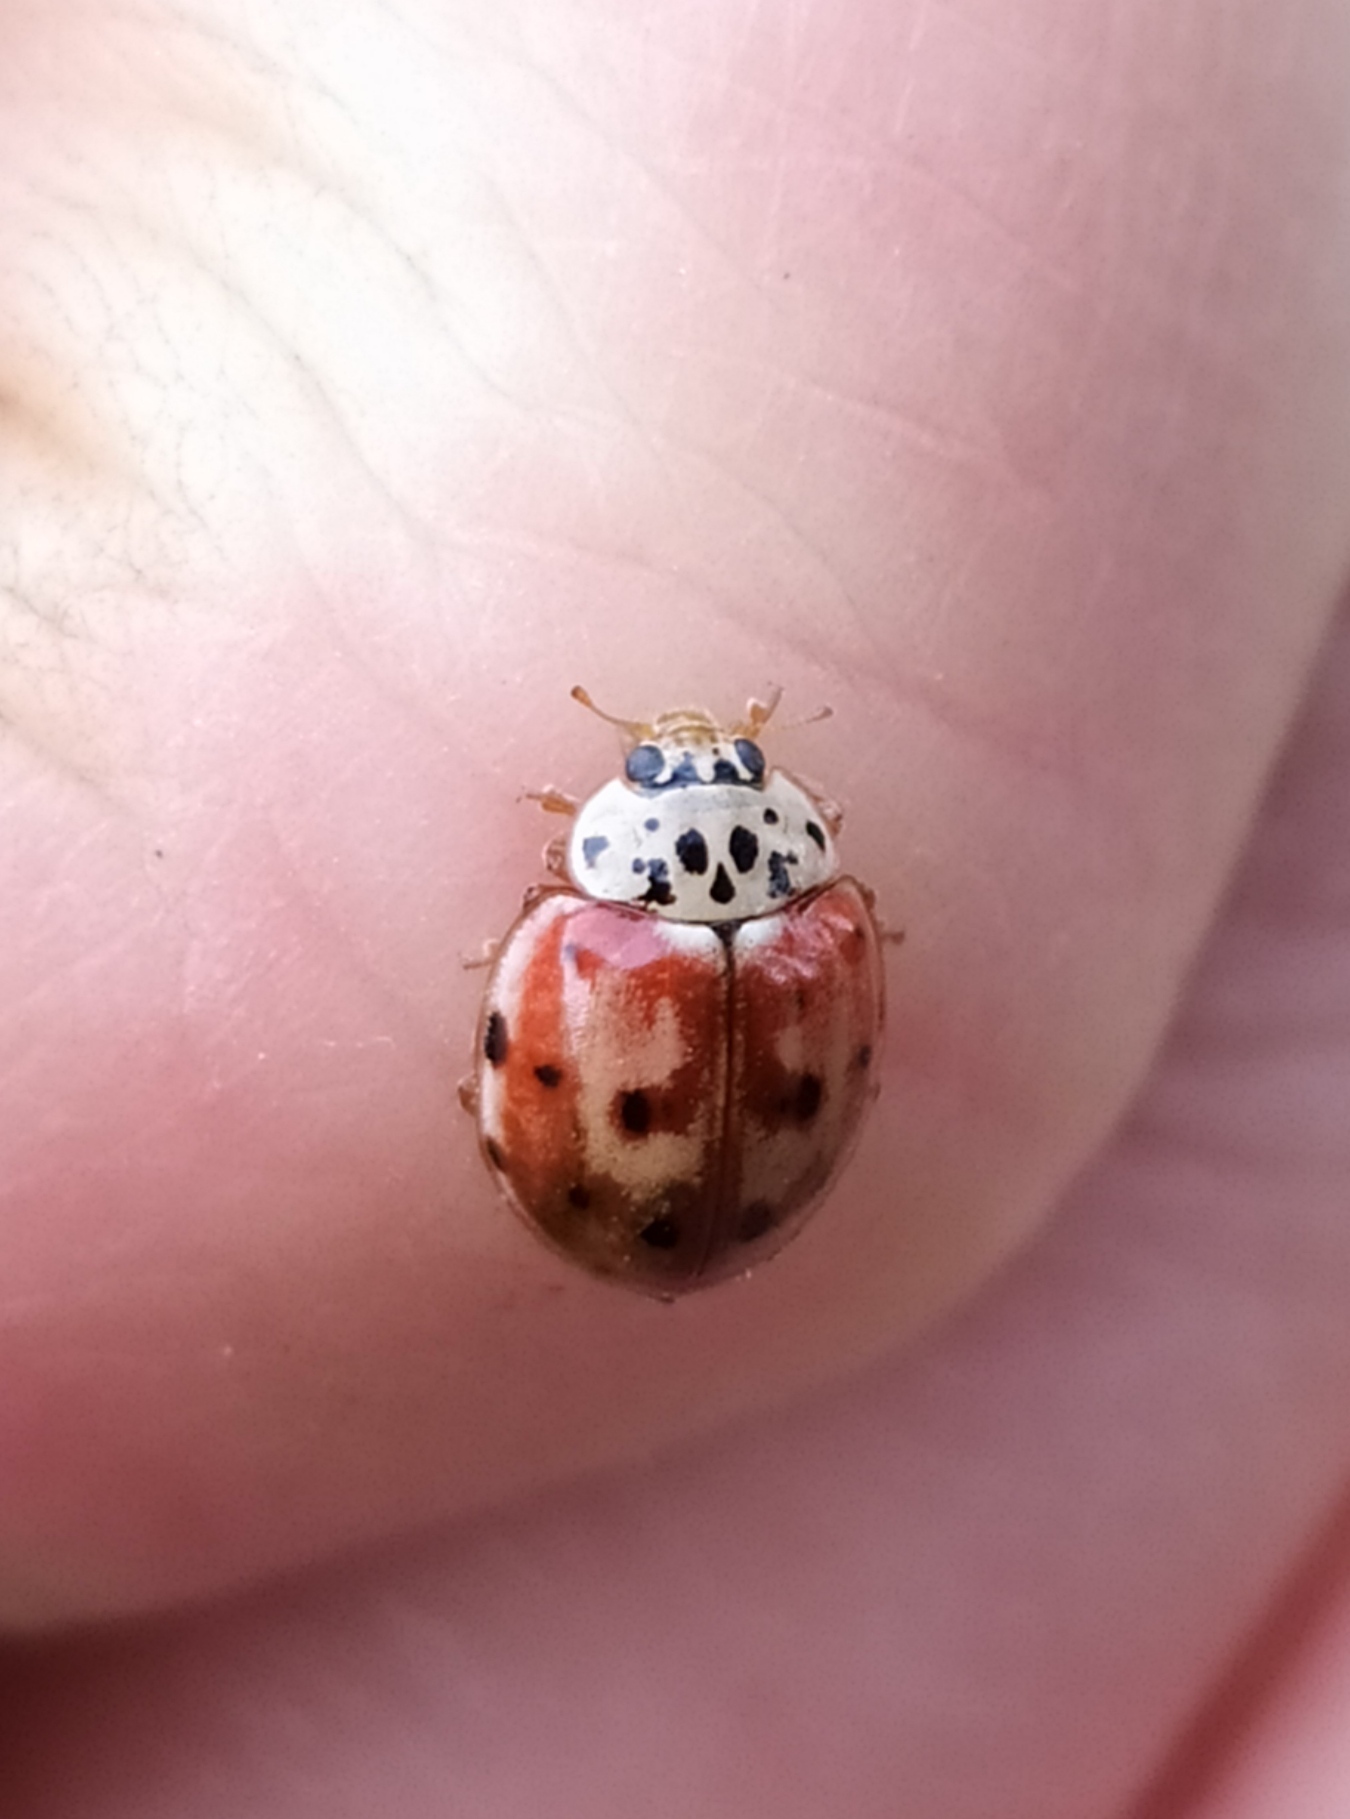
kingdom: Animalia
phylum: Arthropoda
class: Insecta
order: Coleoptera
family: Coccinellidae
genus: Harmonia
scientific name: Harmonia quadripunctata
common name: Cream-streaked ladybird
